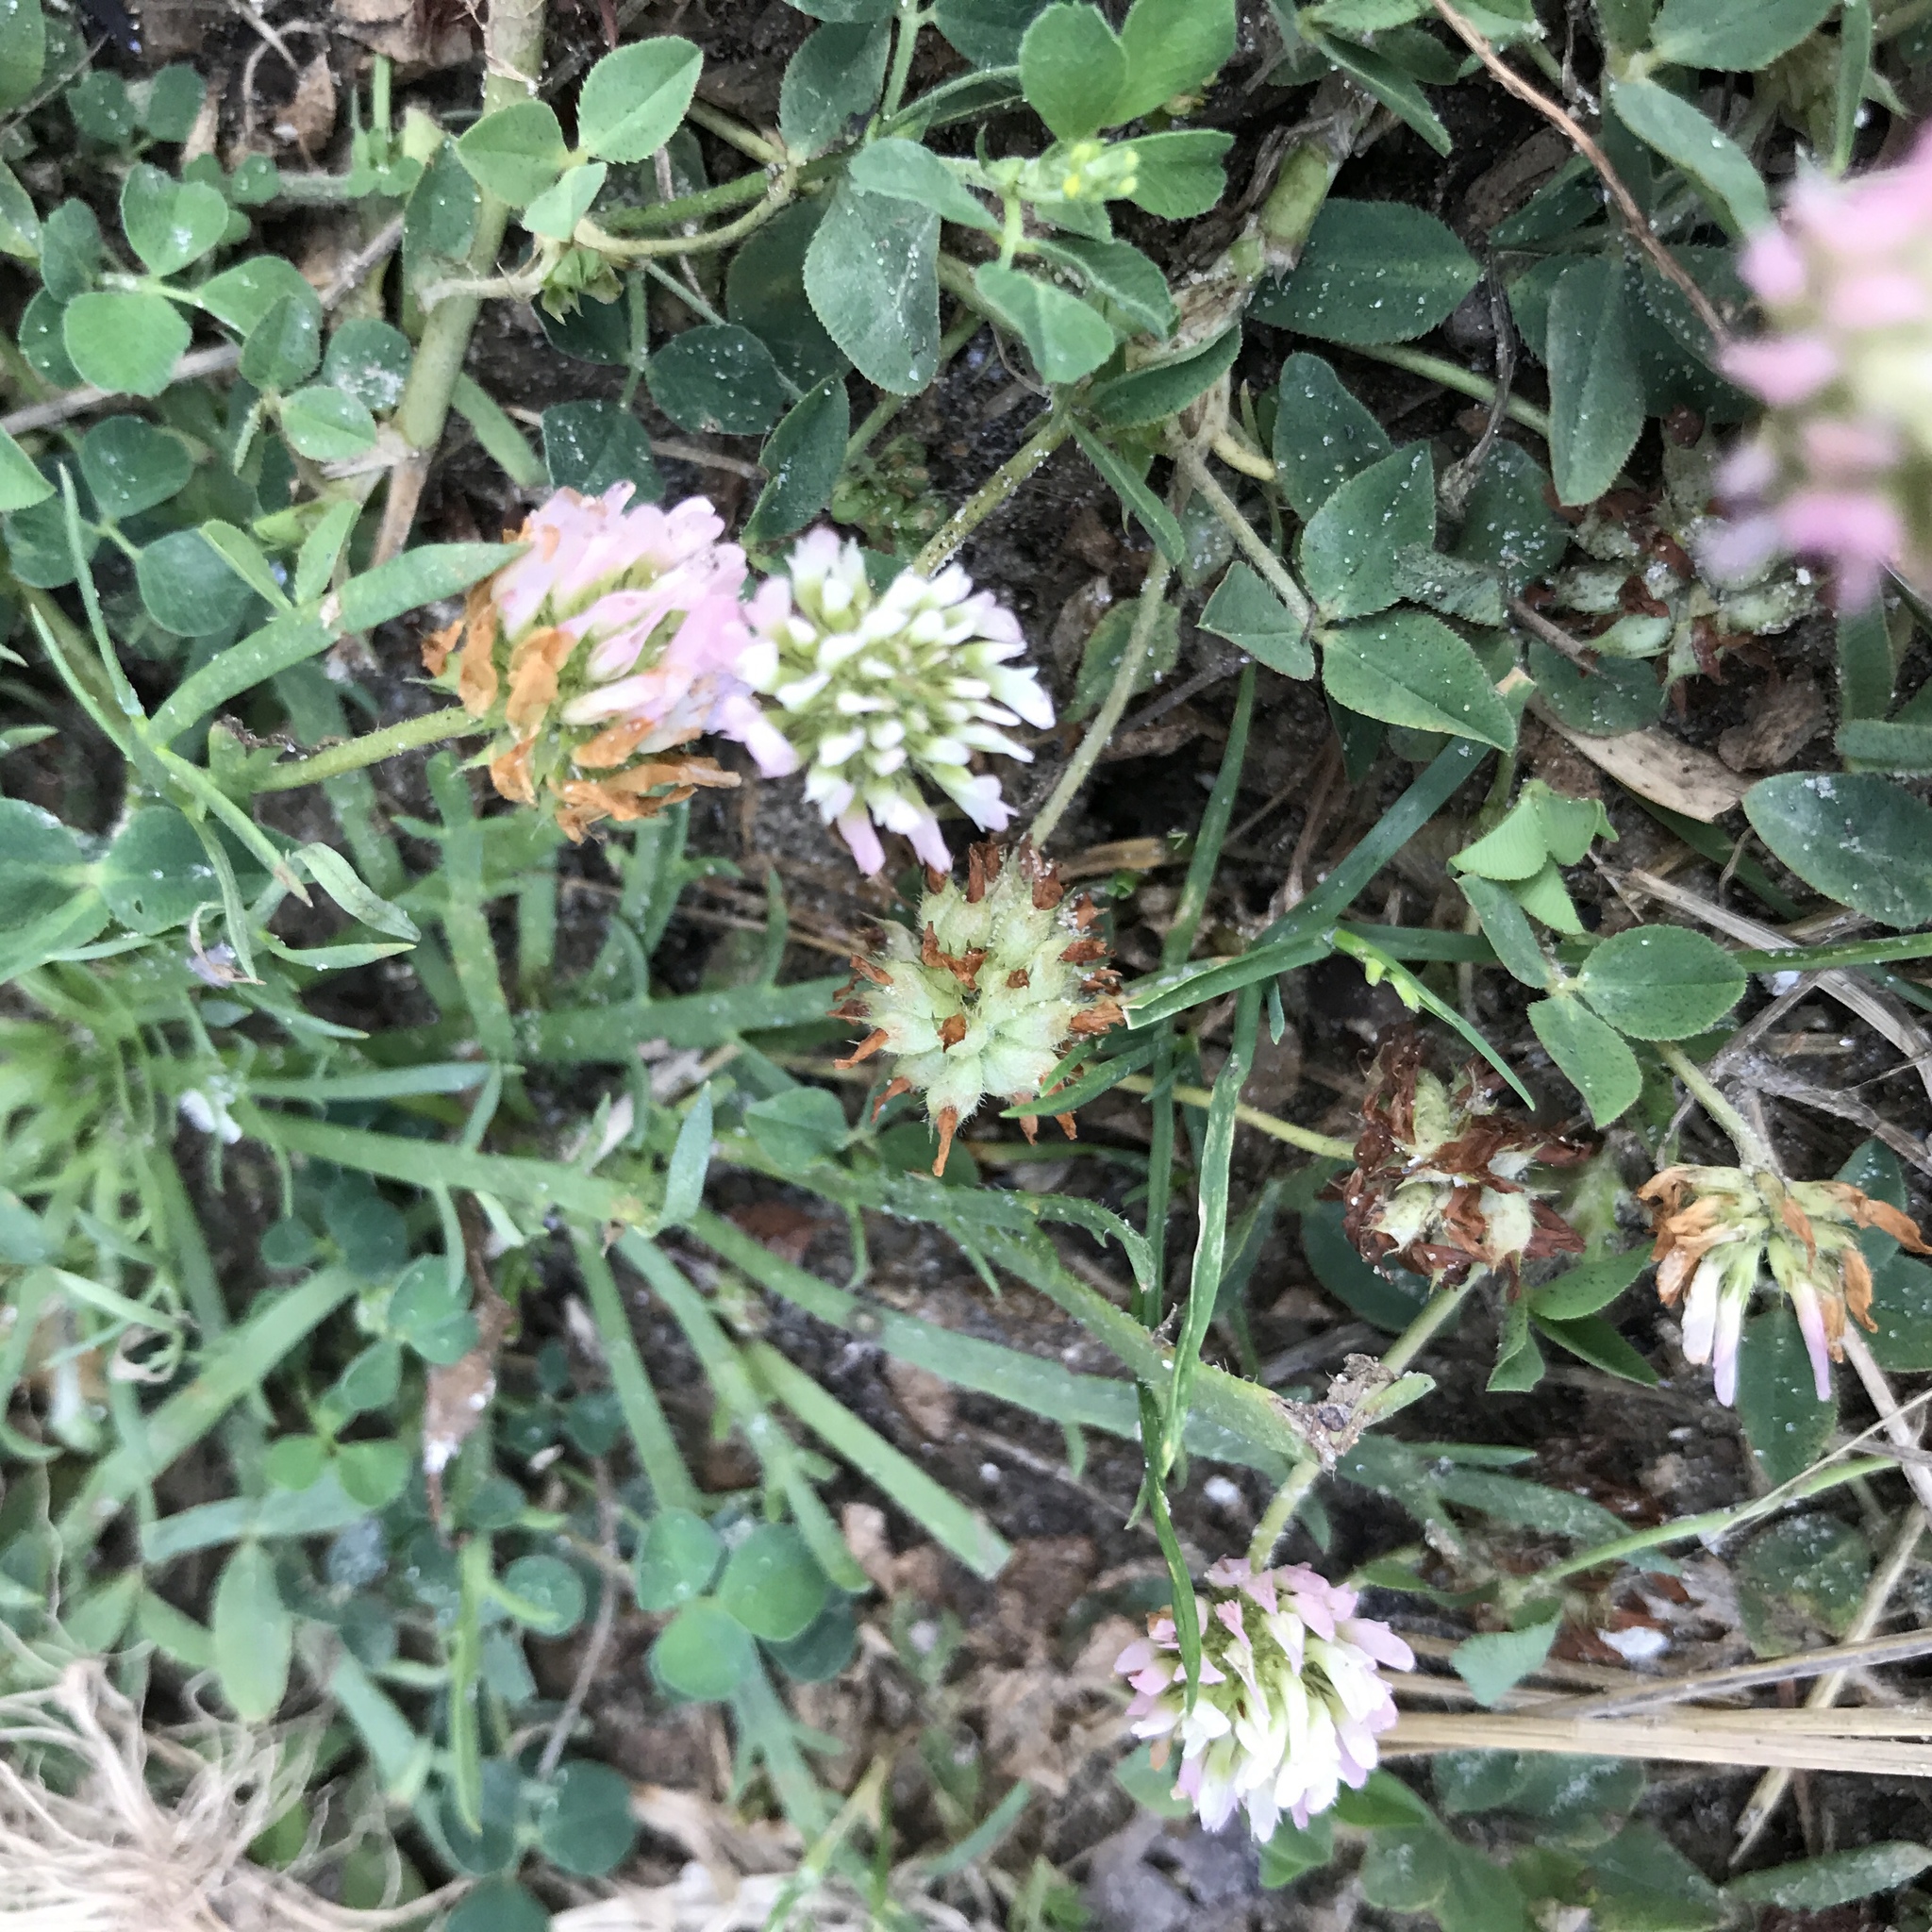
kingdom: Plantae
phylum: Tracheophyta
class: Magnoliopsida
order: Fabales
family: Fabaceae
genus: Trifolium
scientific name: Trifolium fragiferum
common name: Strawberry clover
